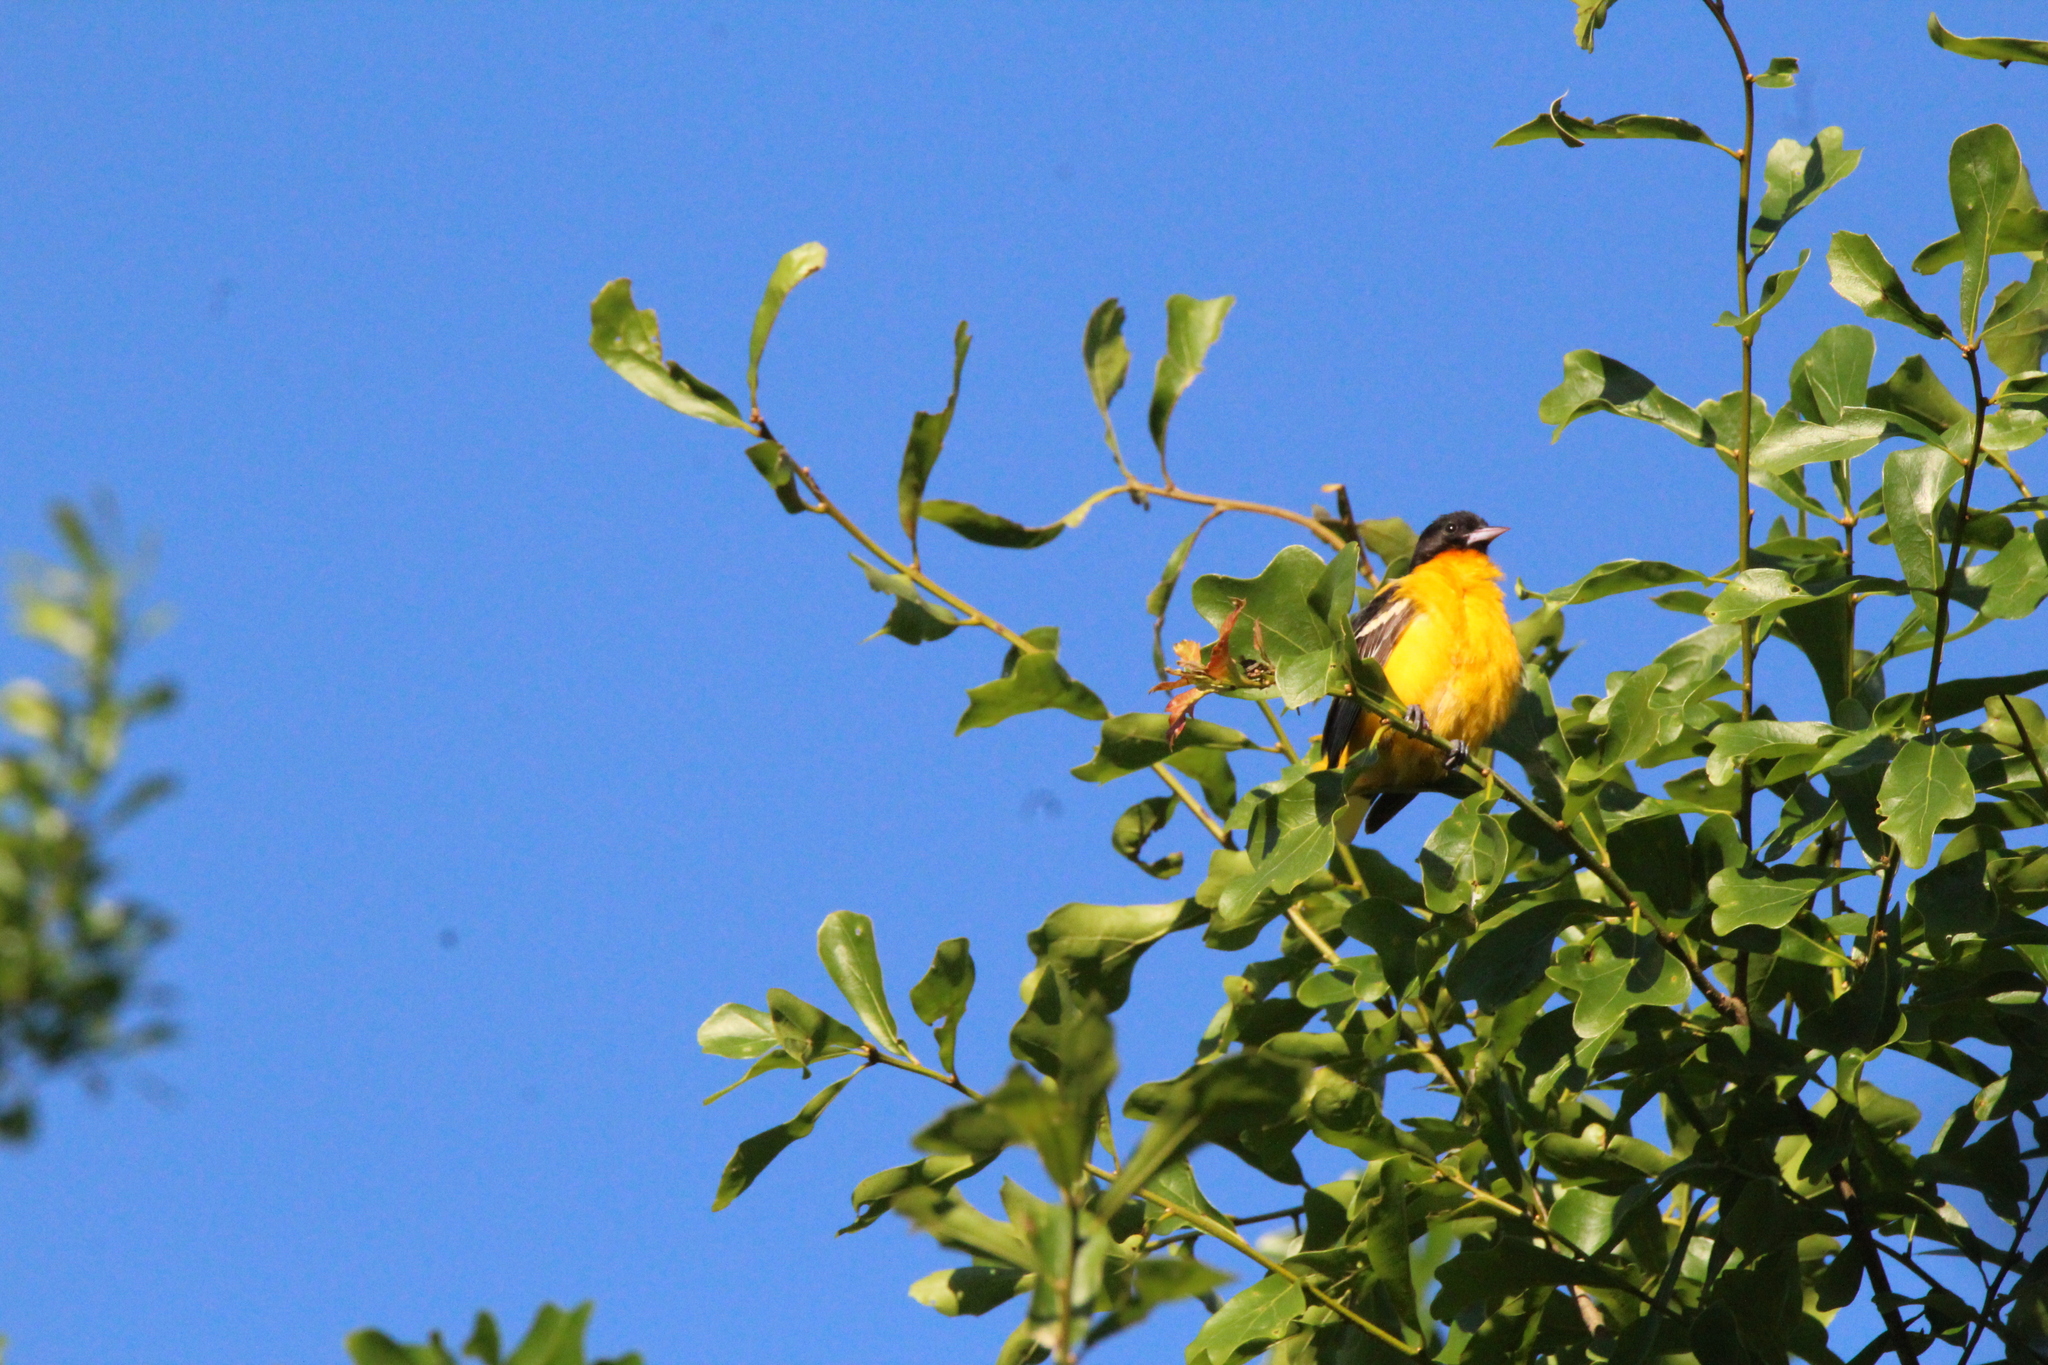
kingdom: Animalia
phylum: Chordata
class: Aves
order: Passeriformes
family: Icteridae
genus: Icterus
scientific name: Icterus galbula
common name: Baltimore oriole
